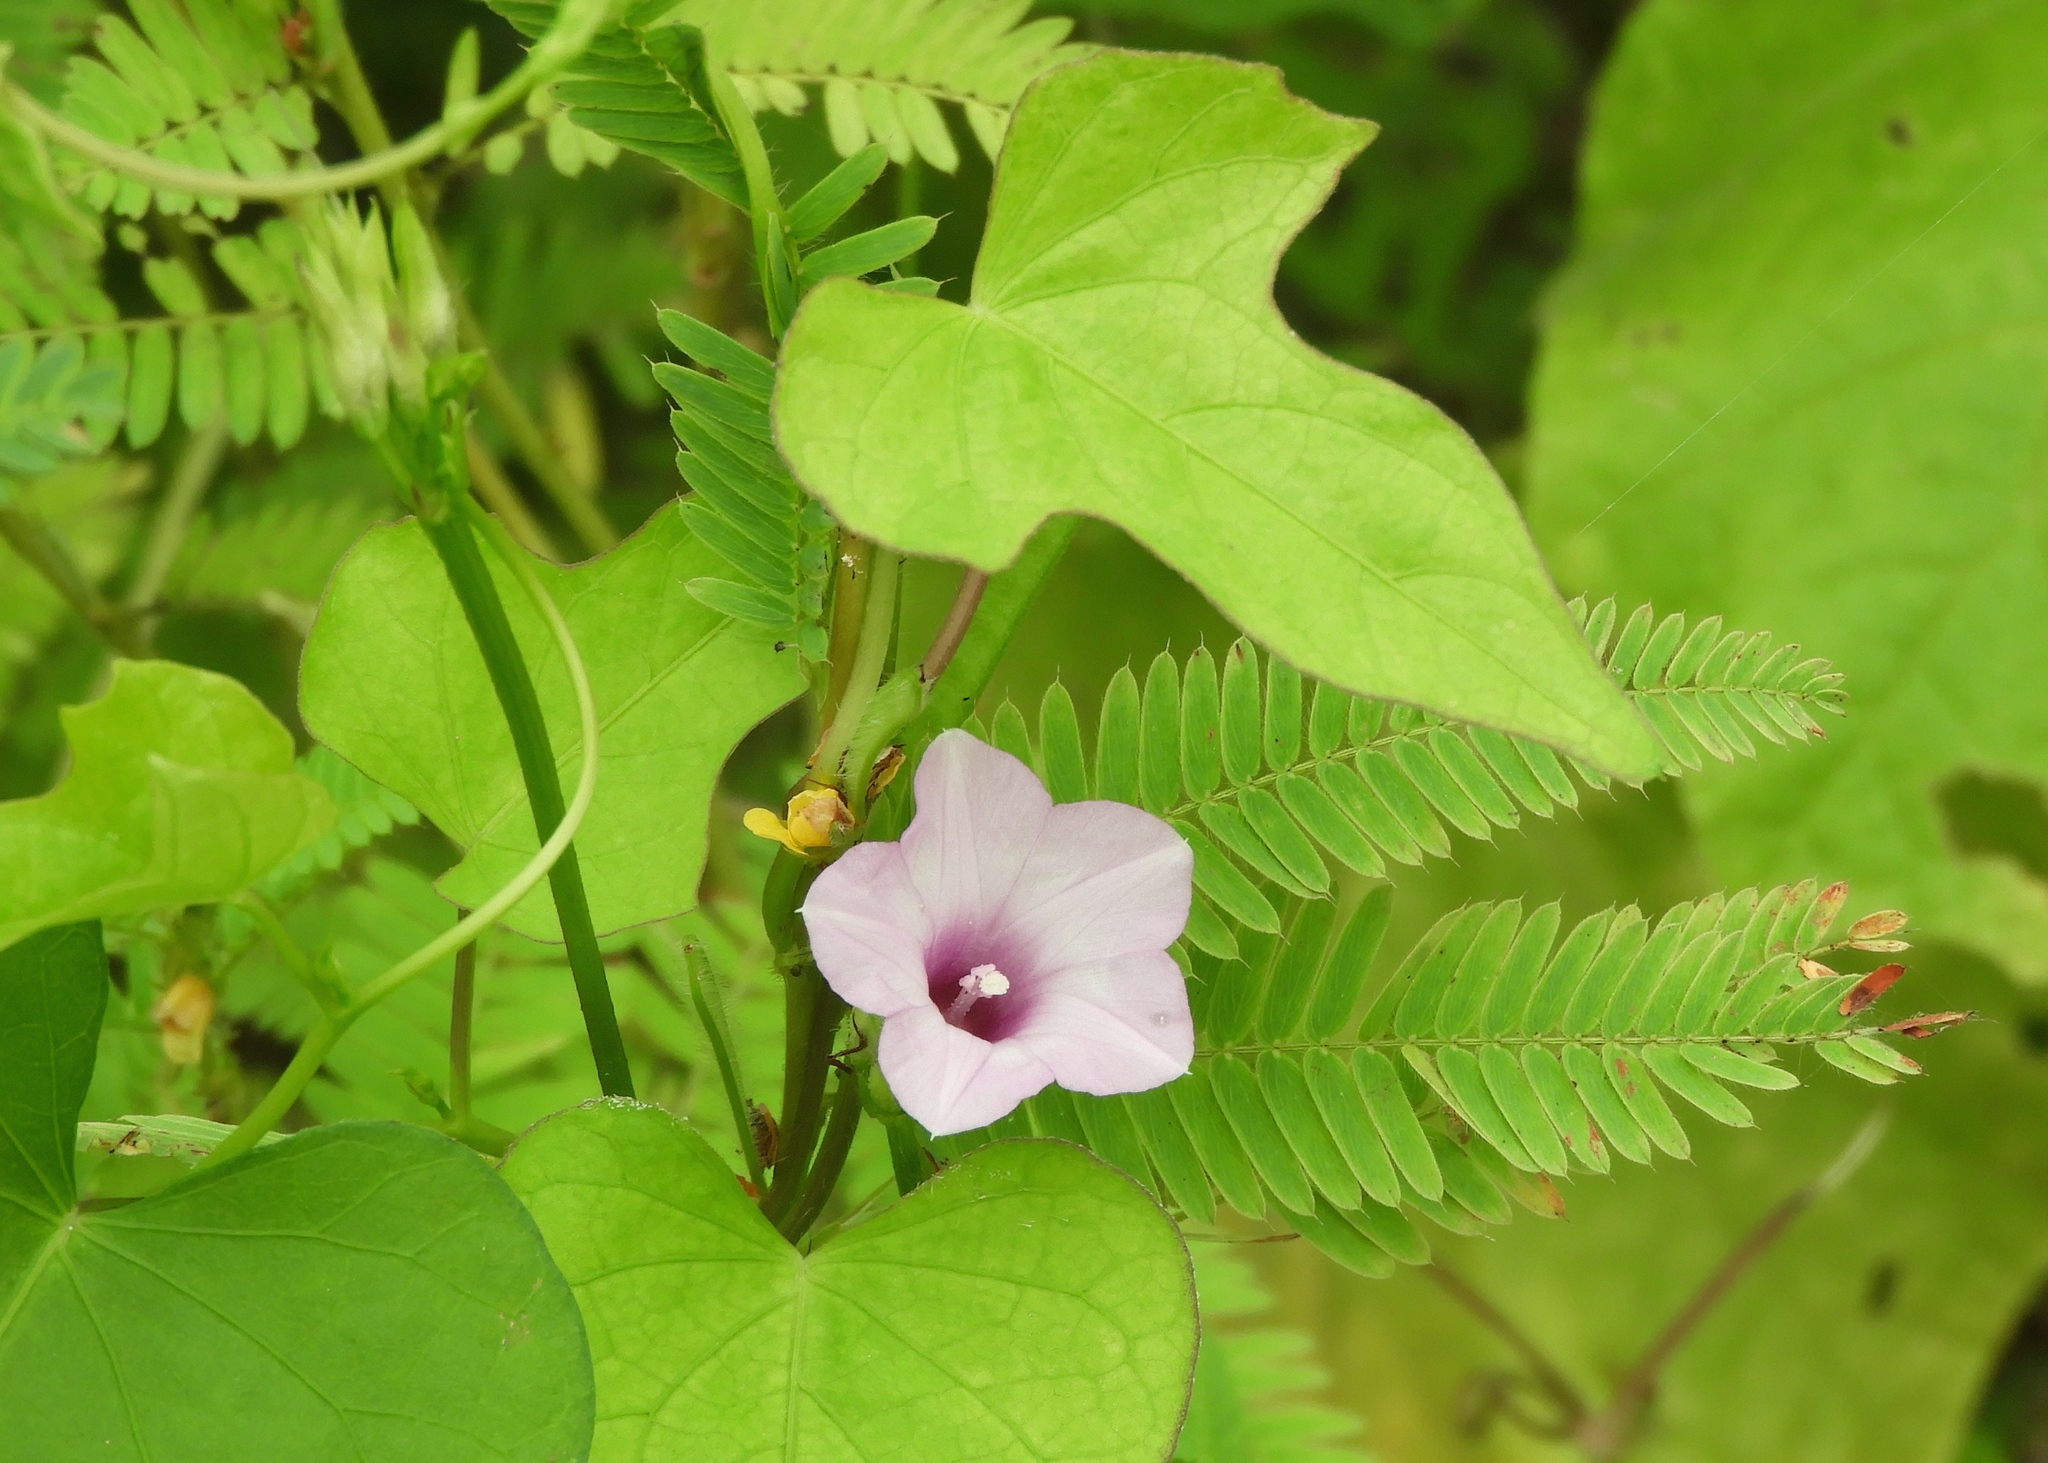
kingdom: Plantae
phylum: Tracheophyta
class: Magnoliopsida
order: Solanales
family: Convolvulaceae
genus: Ipomoea
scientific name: Ipomoea triloba
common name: Little-bell
